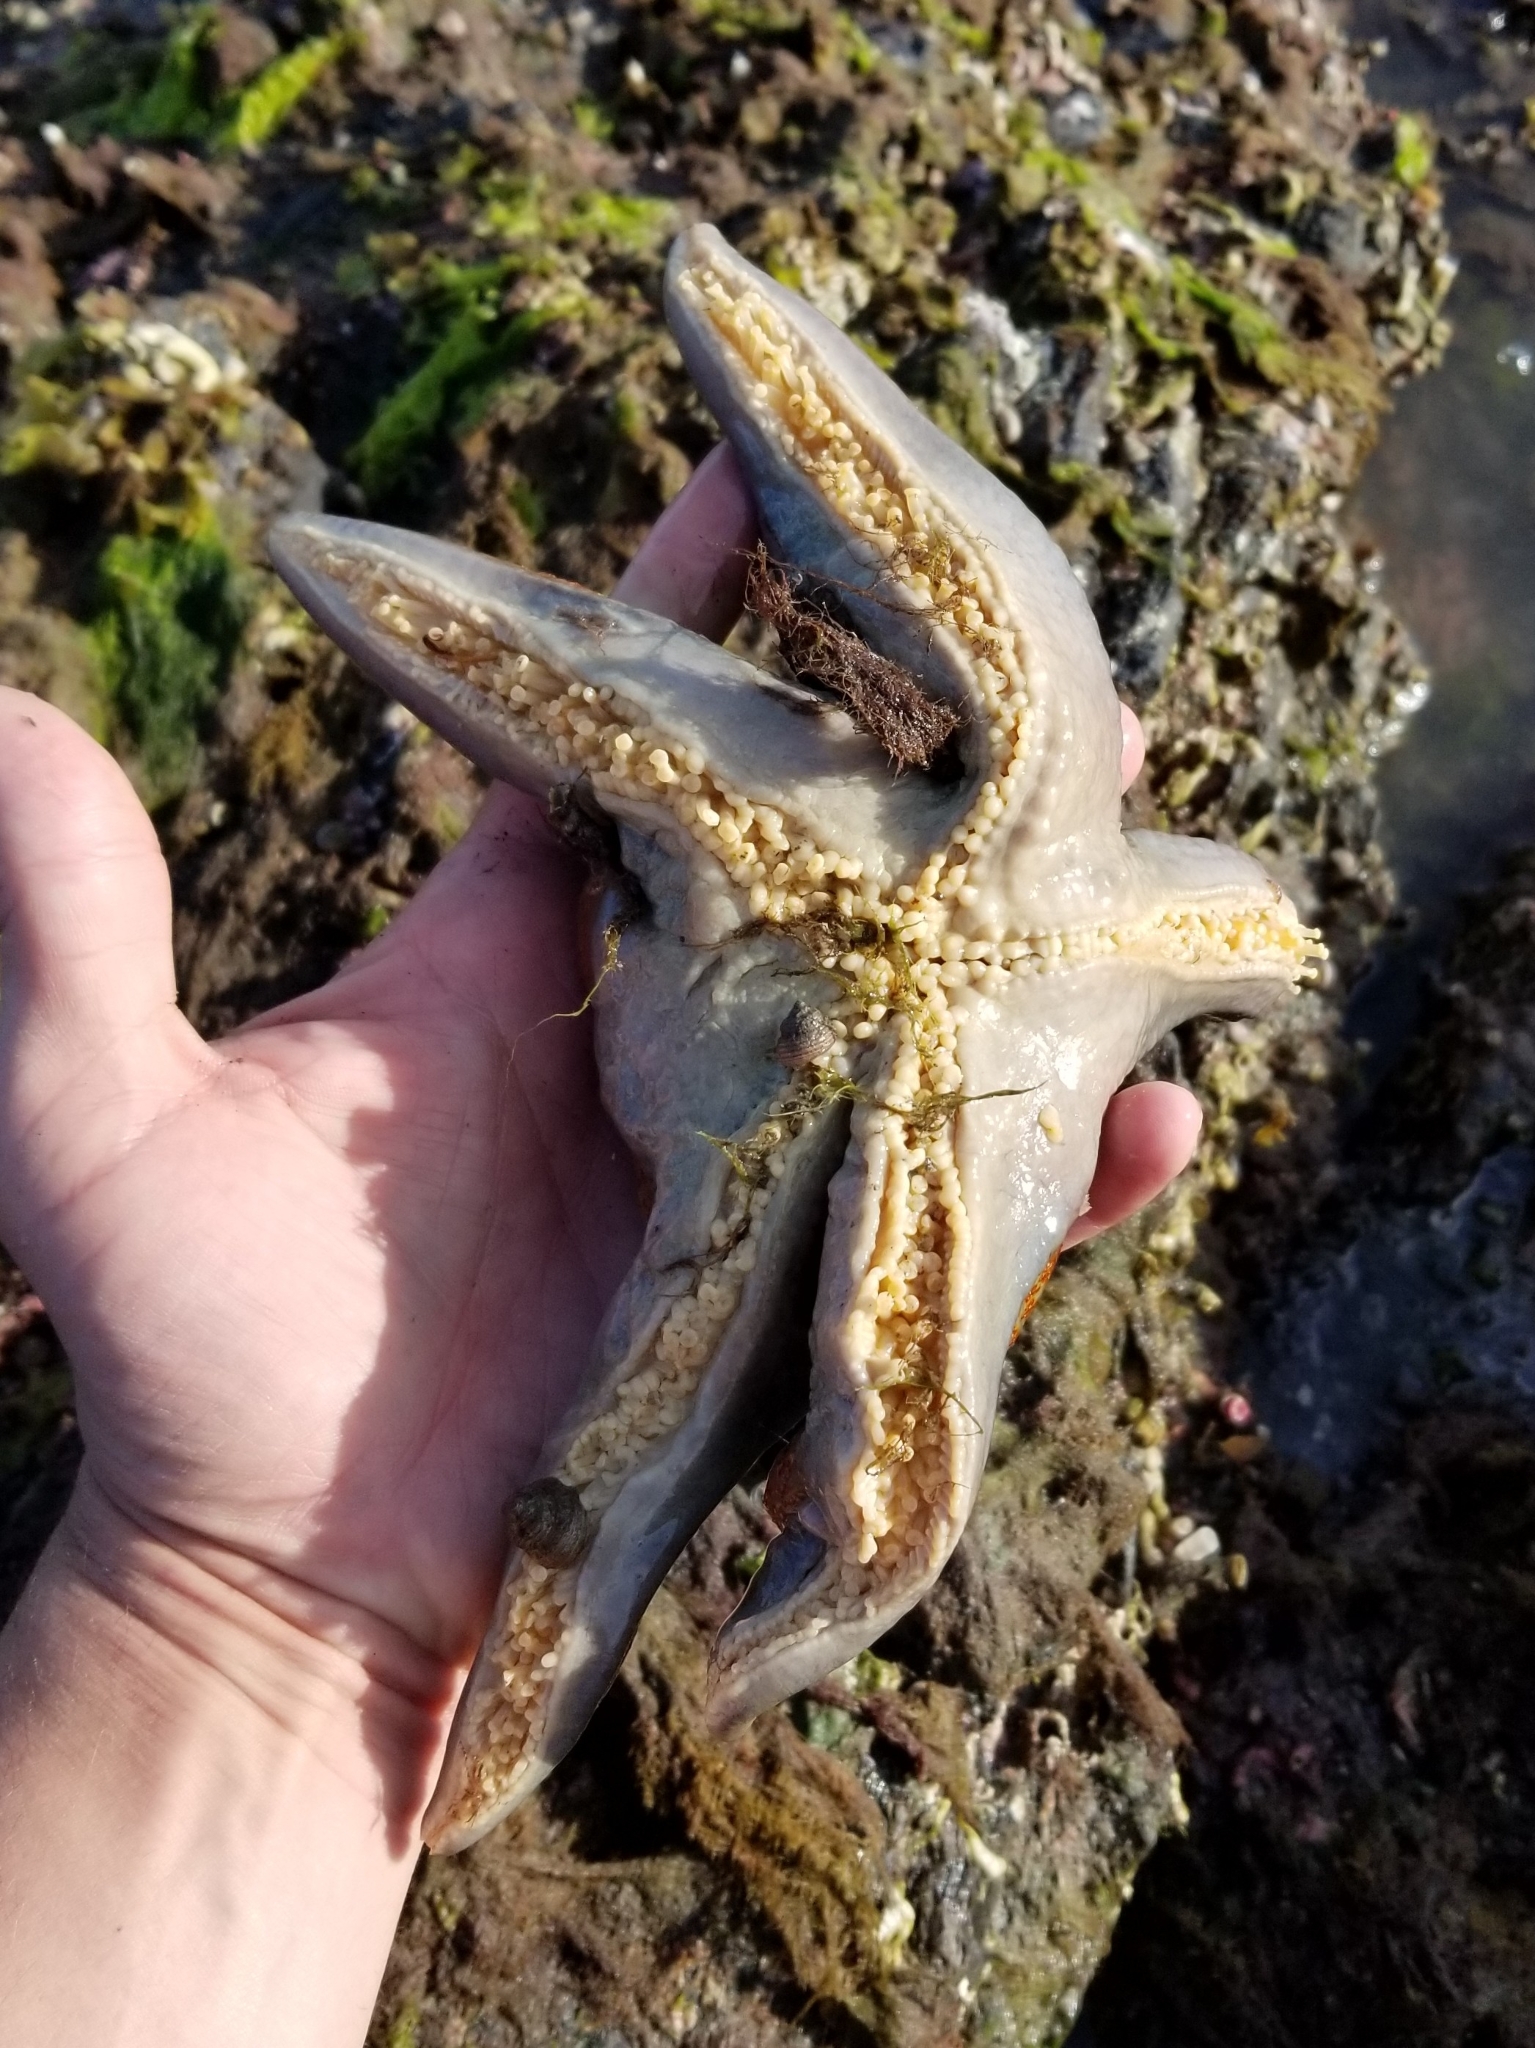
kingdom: Animalia
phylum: Echinodermata
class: Asteroidea
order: Valvatida
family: Asteropseidae
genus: Dermasterias
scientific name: Dermasterias imbricata
